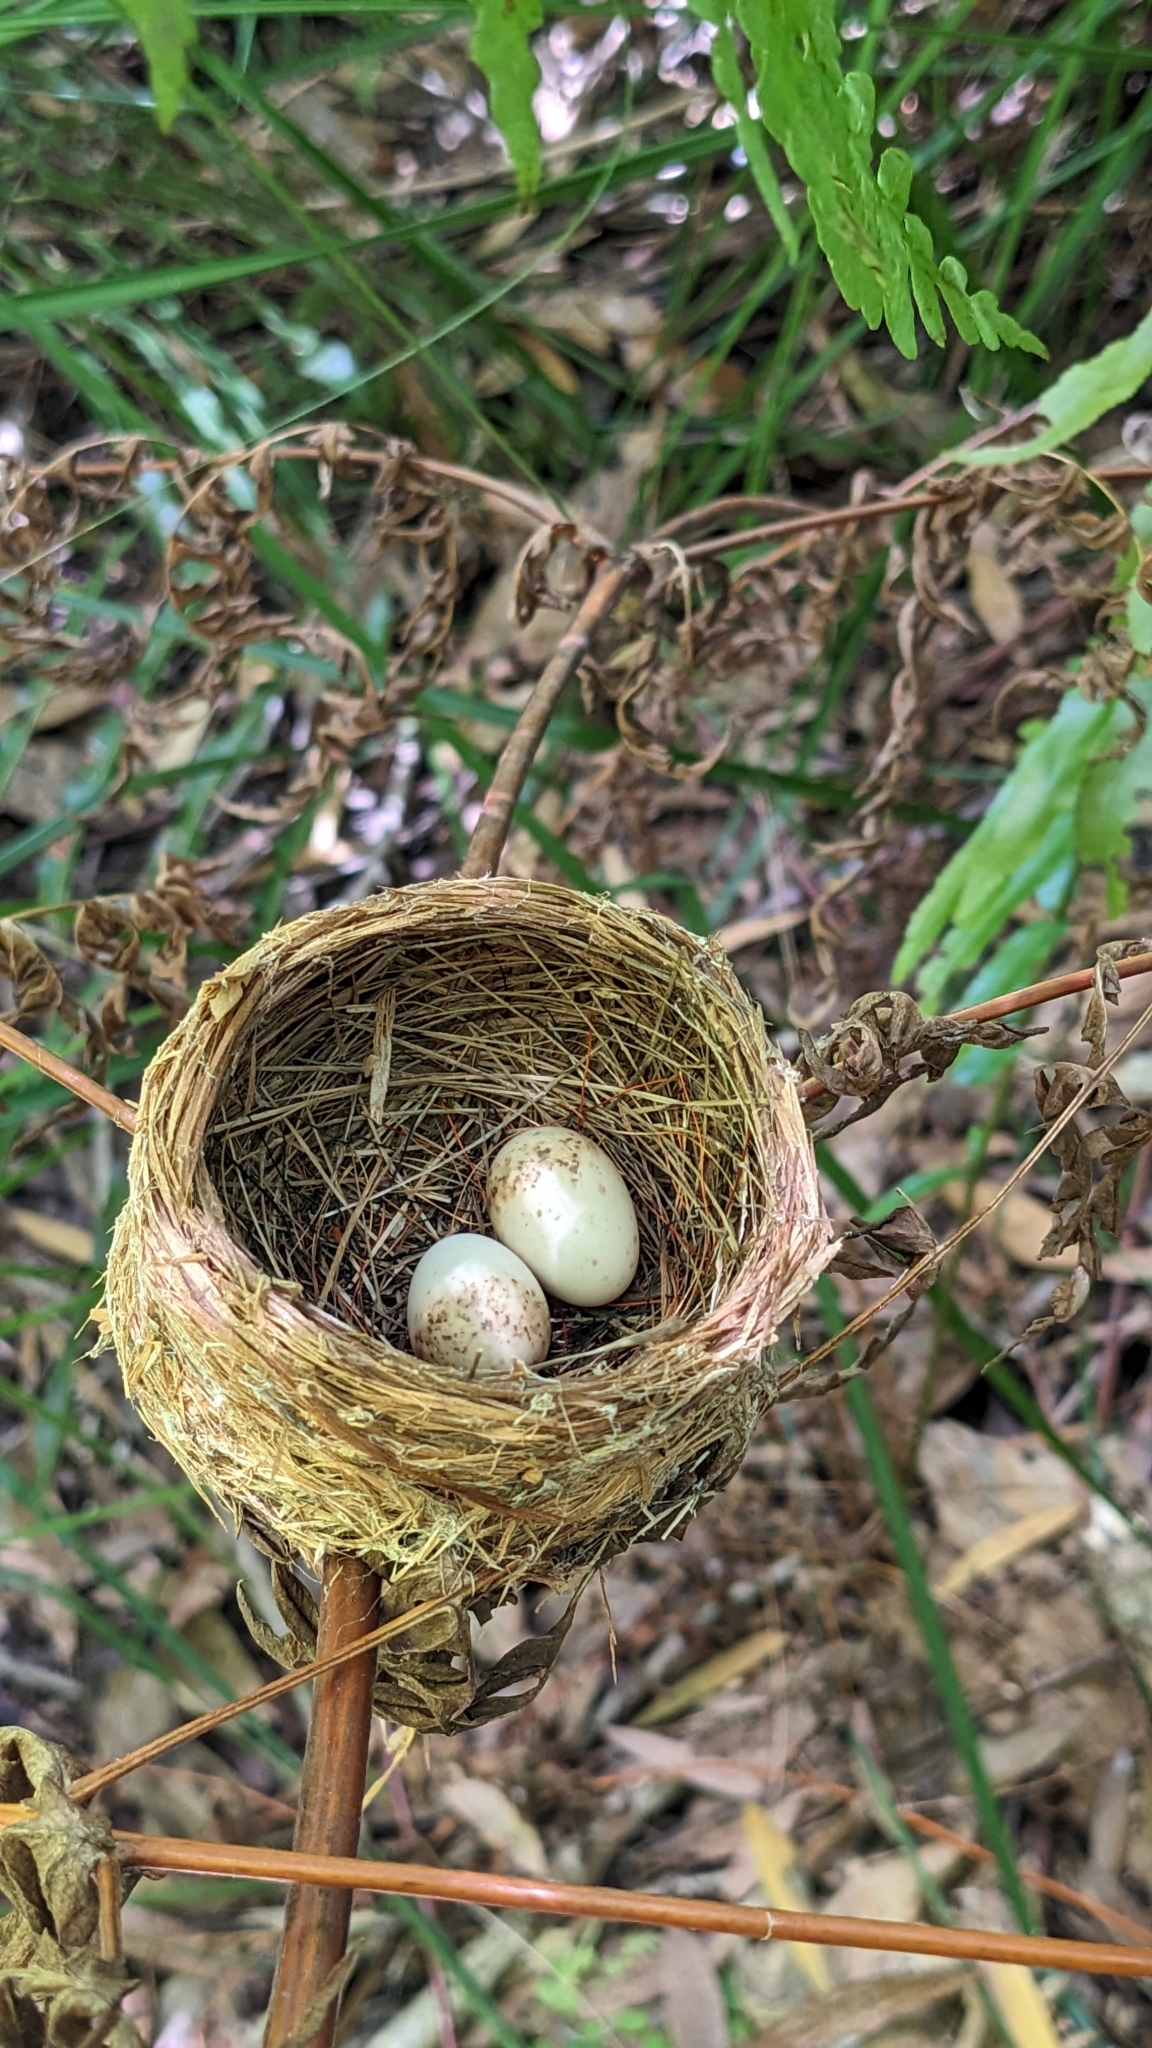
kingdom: Animalia
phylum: Chordata
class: Aves
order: Passeriformes
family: Rhipiduridae
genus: Rhipidura
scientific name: Rhipidura rufifrons
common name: Rufous fantail
